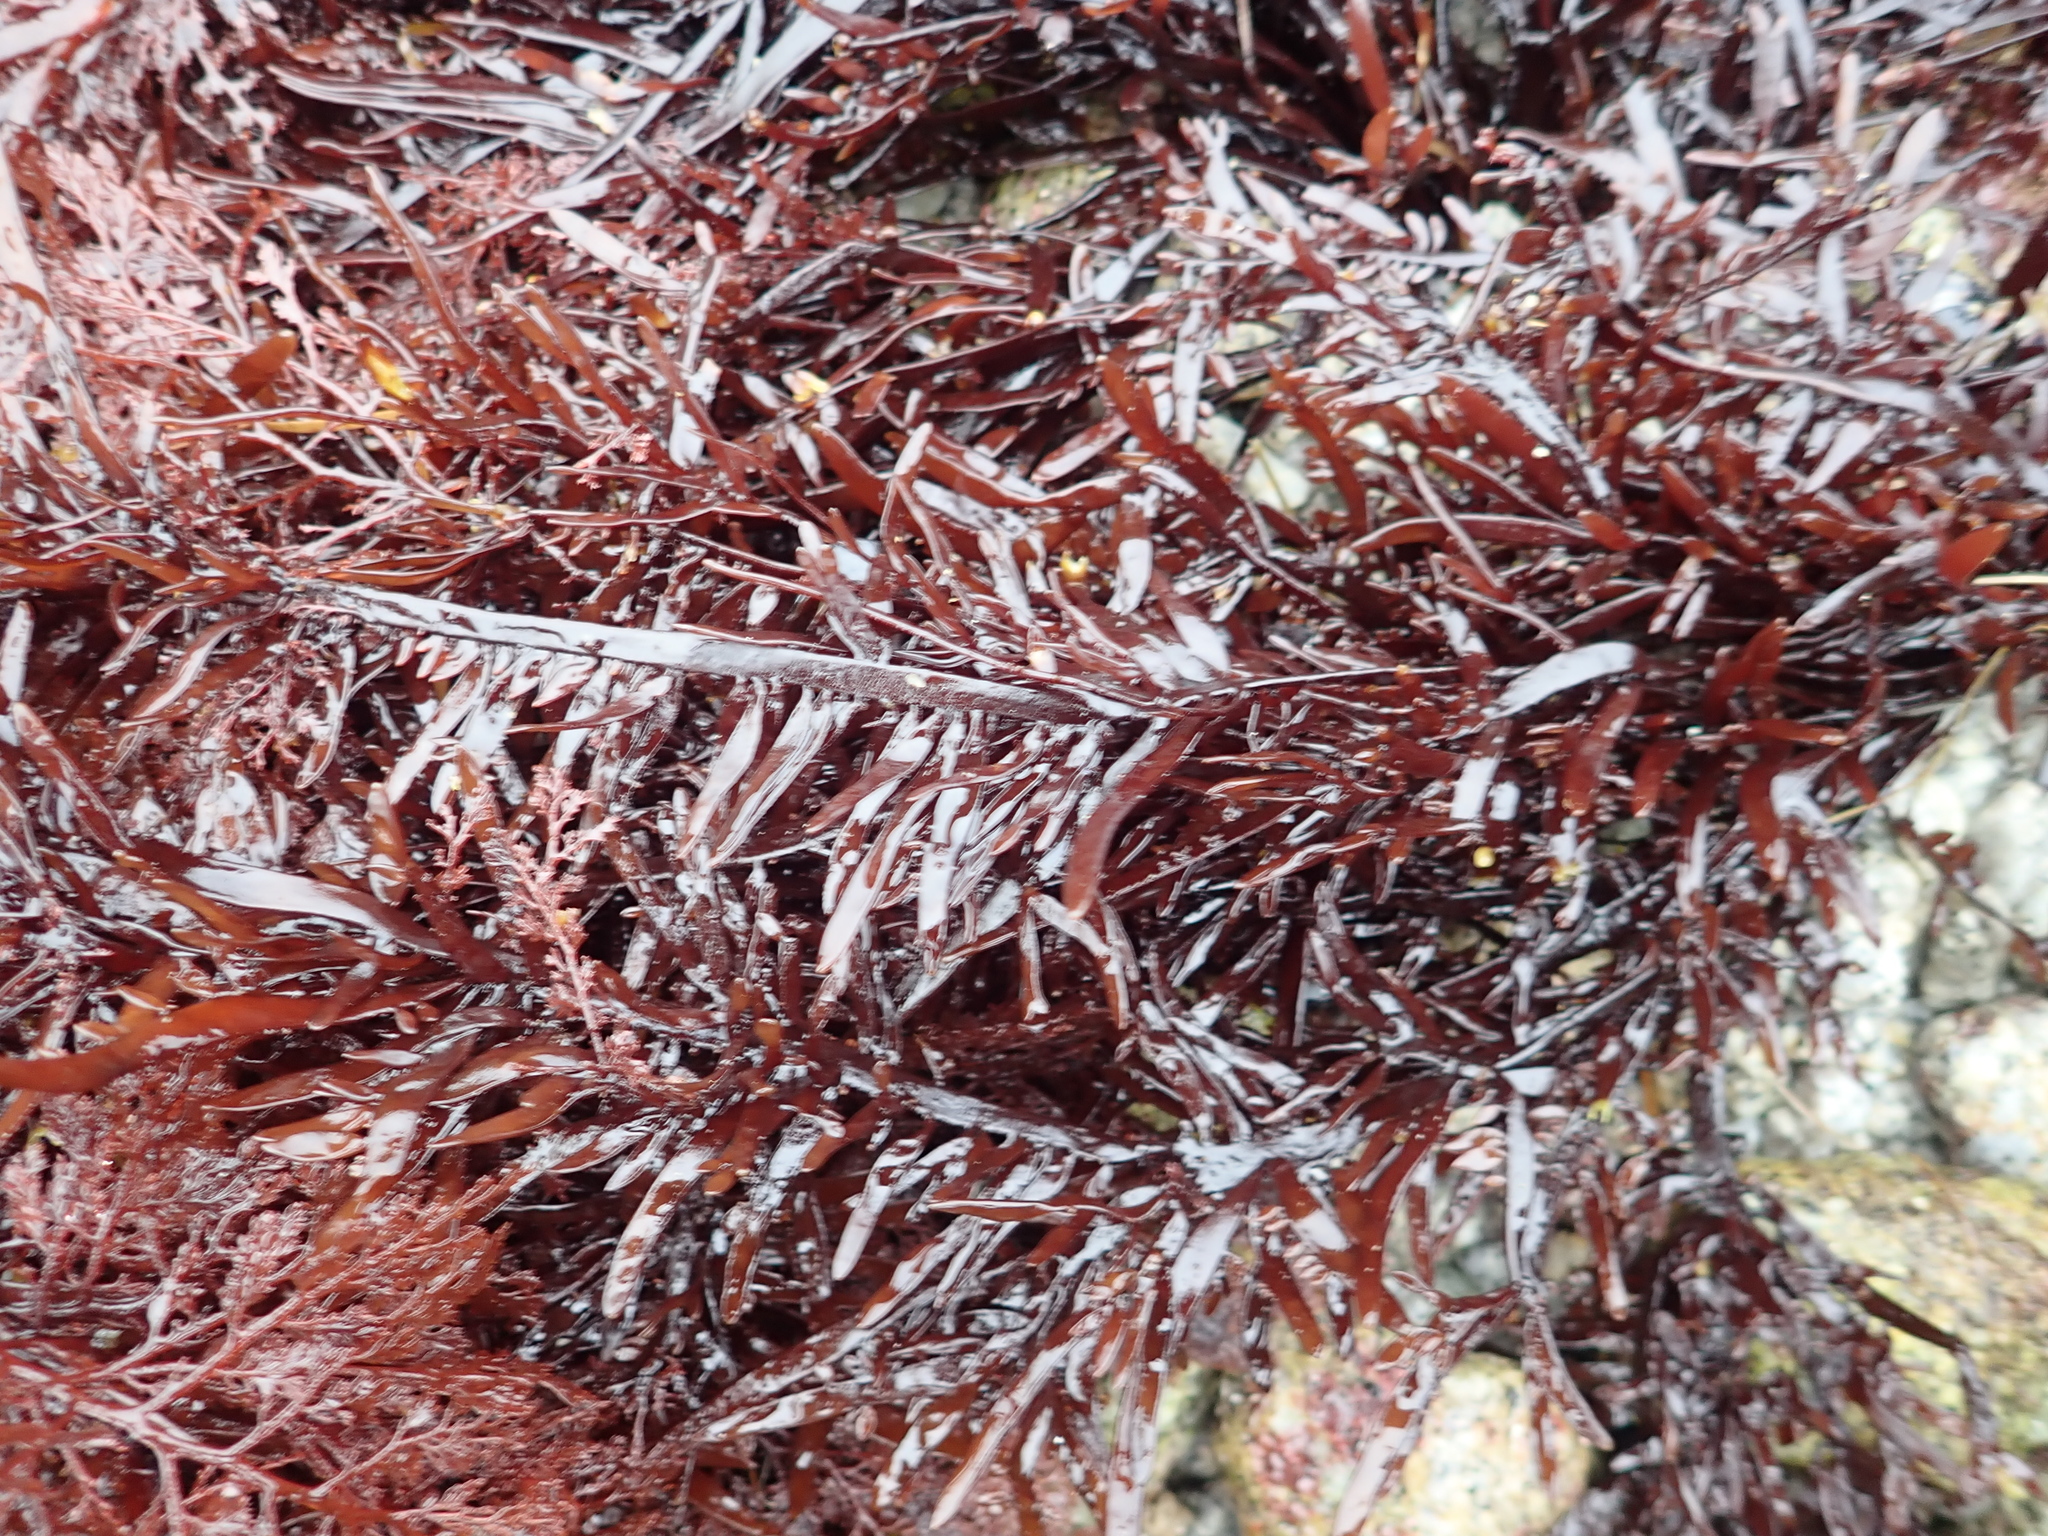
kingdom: Plantae
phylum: Rhodophyta
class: Florideophyceae
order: Halymeniales
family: Halymeniaceae
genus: Grateloupia
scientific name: Grateloupia Prionitis lanceolata
